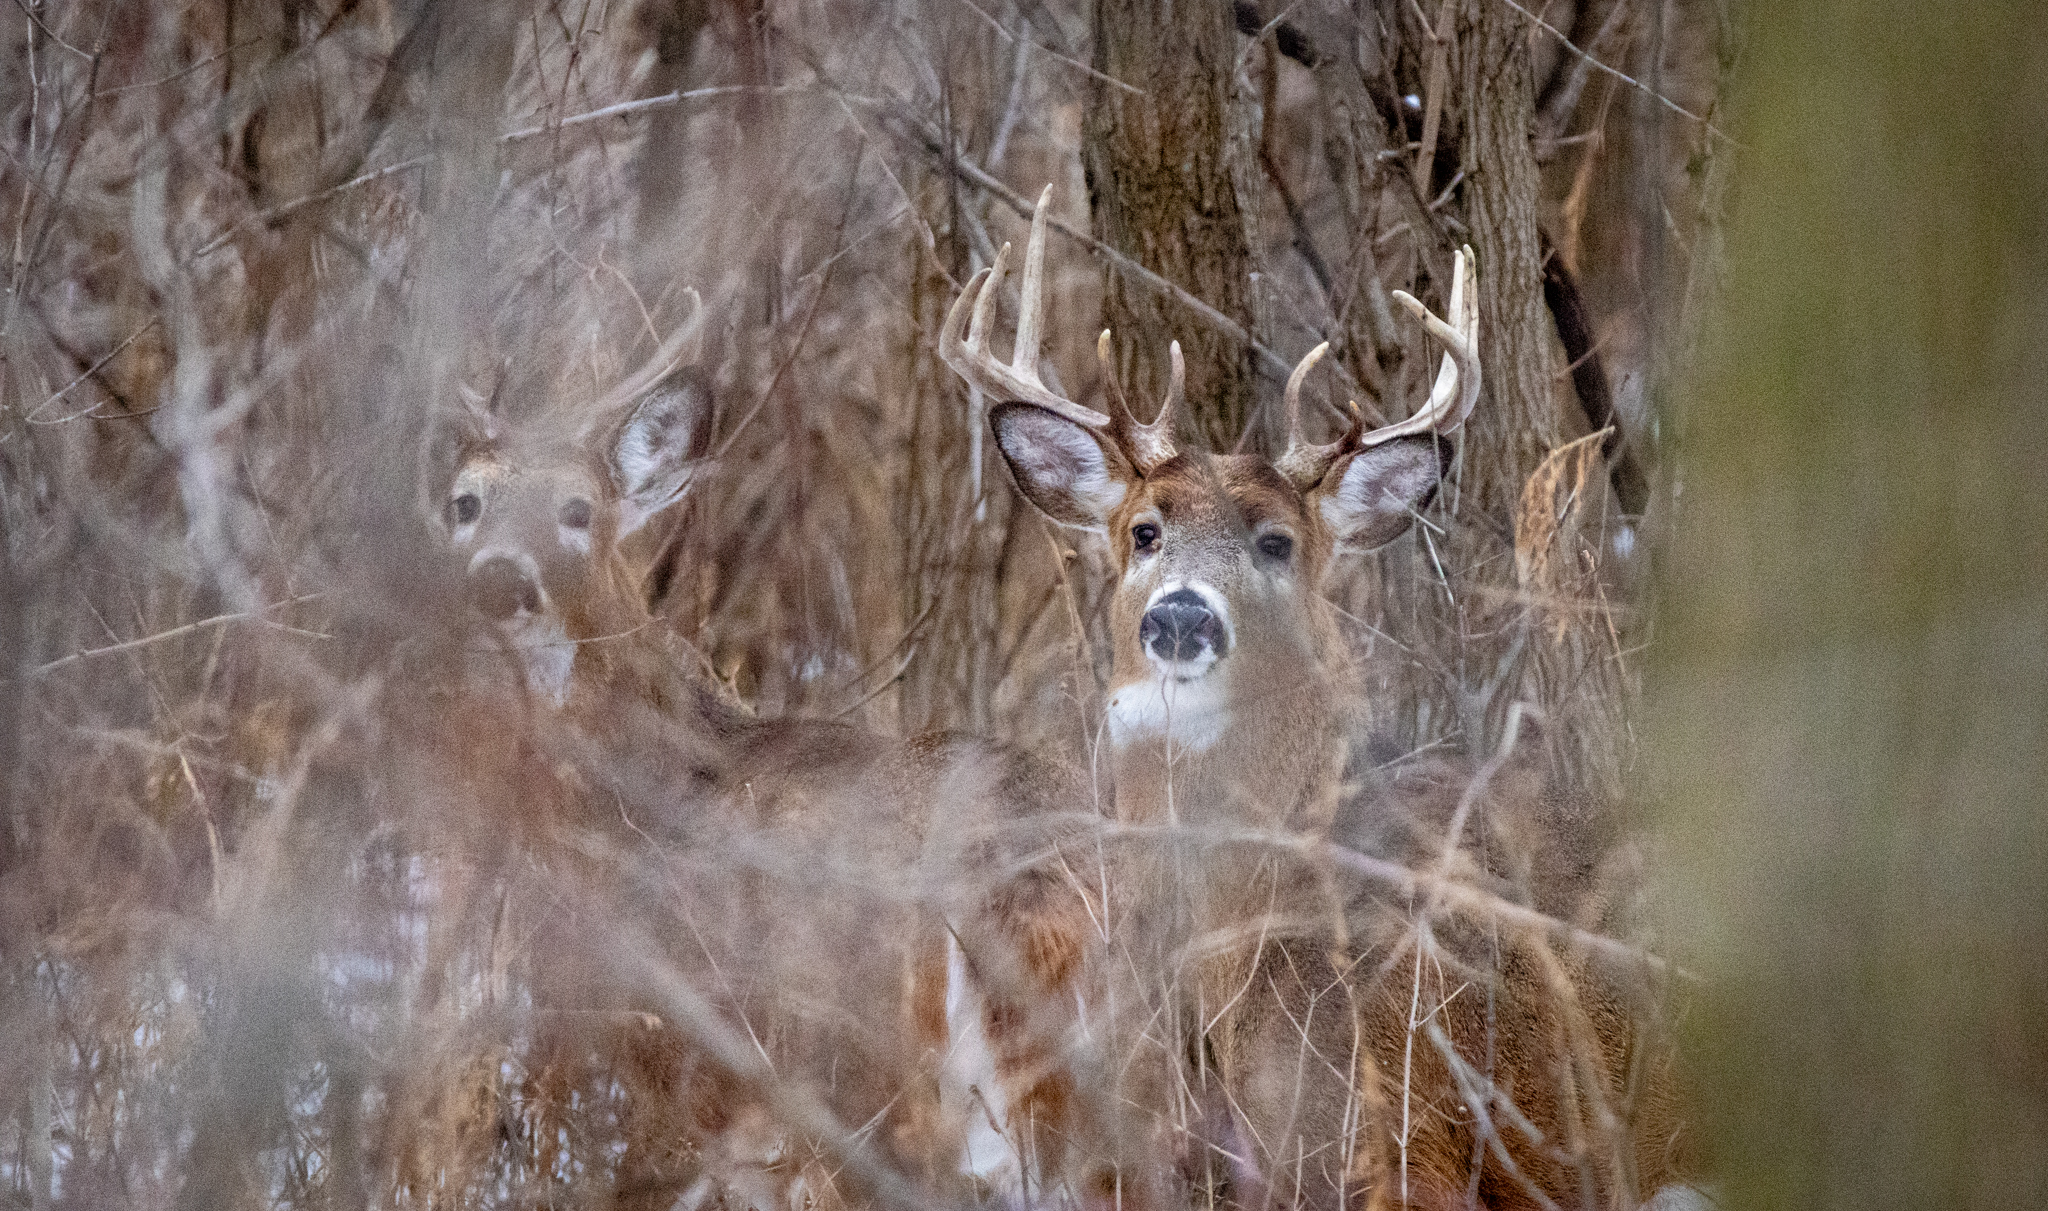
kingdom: Animalia
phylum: Chordata
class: Mammalia
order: Artiodactyla
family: Cervidae
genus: Odocoileus
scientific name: Odocoileus virginianus
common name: White-tailed deer
